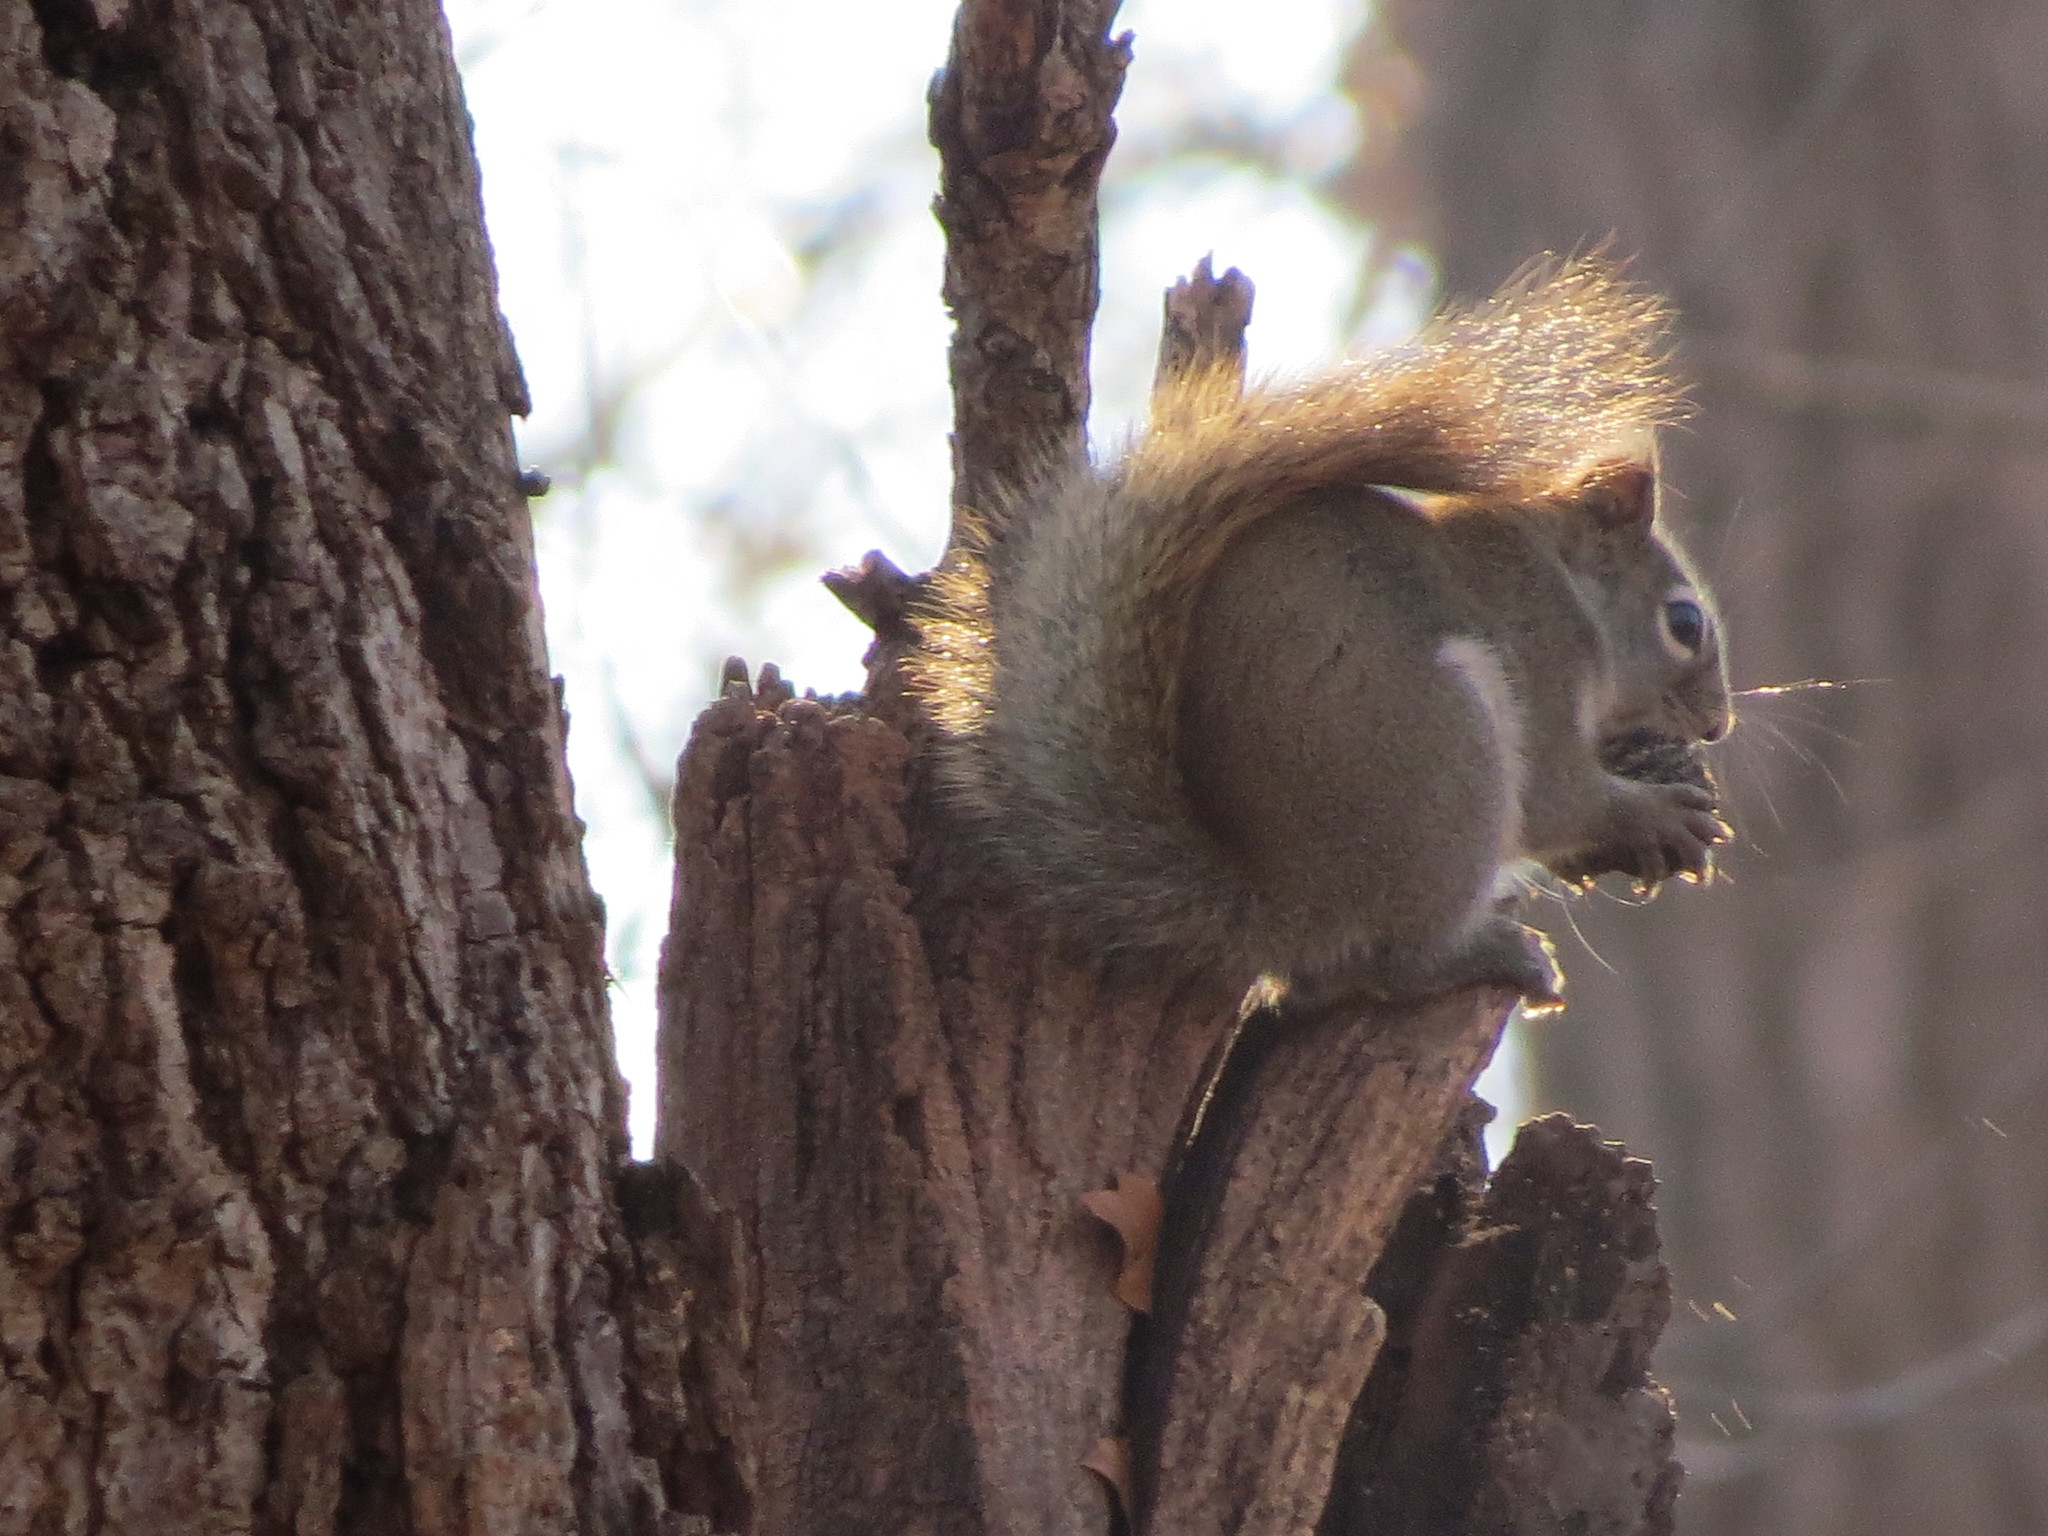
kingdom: Animalia
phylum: Chordata
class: Mammalia
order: Rodentia
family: Sciuridae
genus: Tamiasciurus
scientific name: Tamiasciurus hudsonicus
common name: Red squirrel
